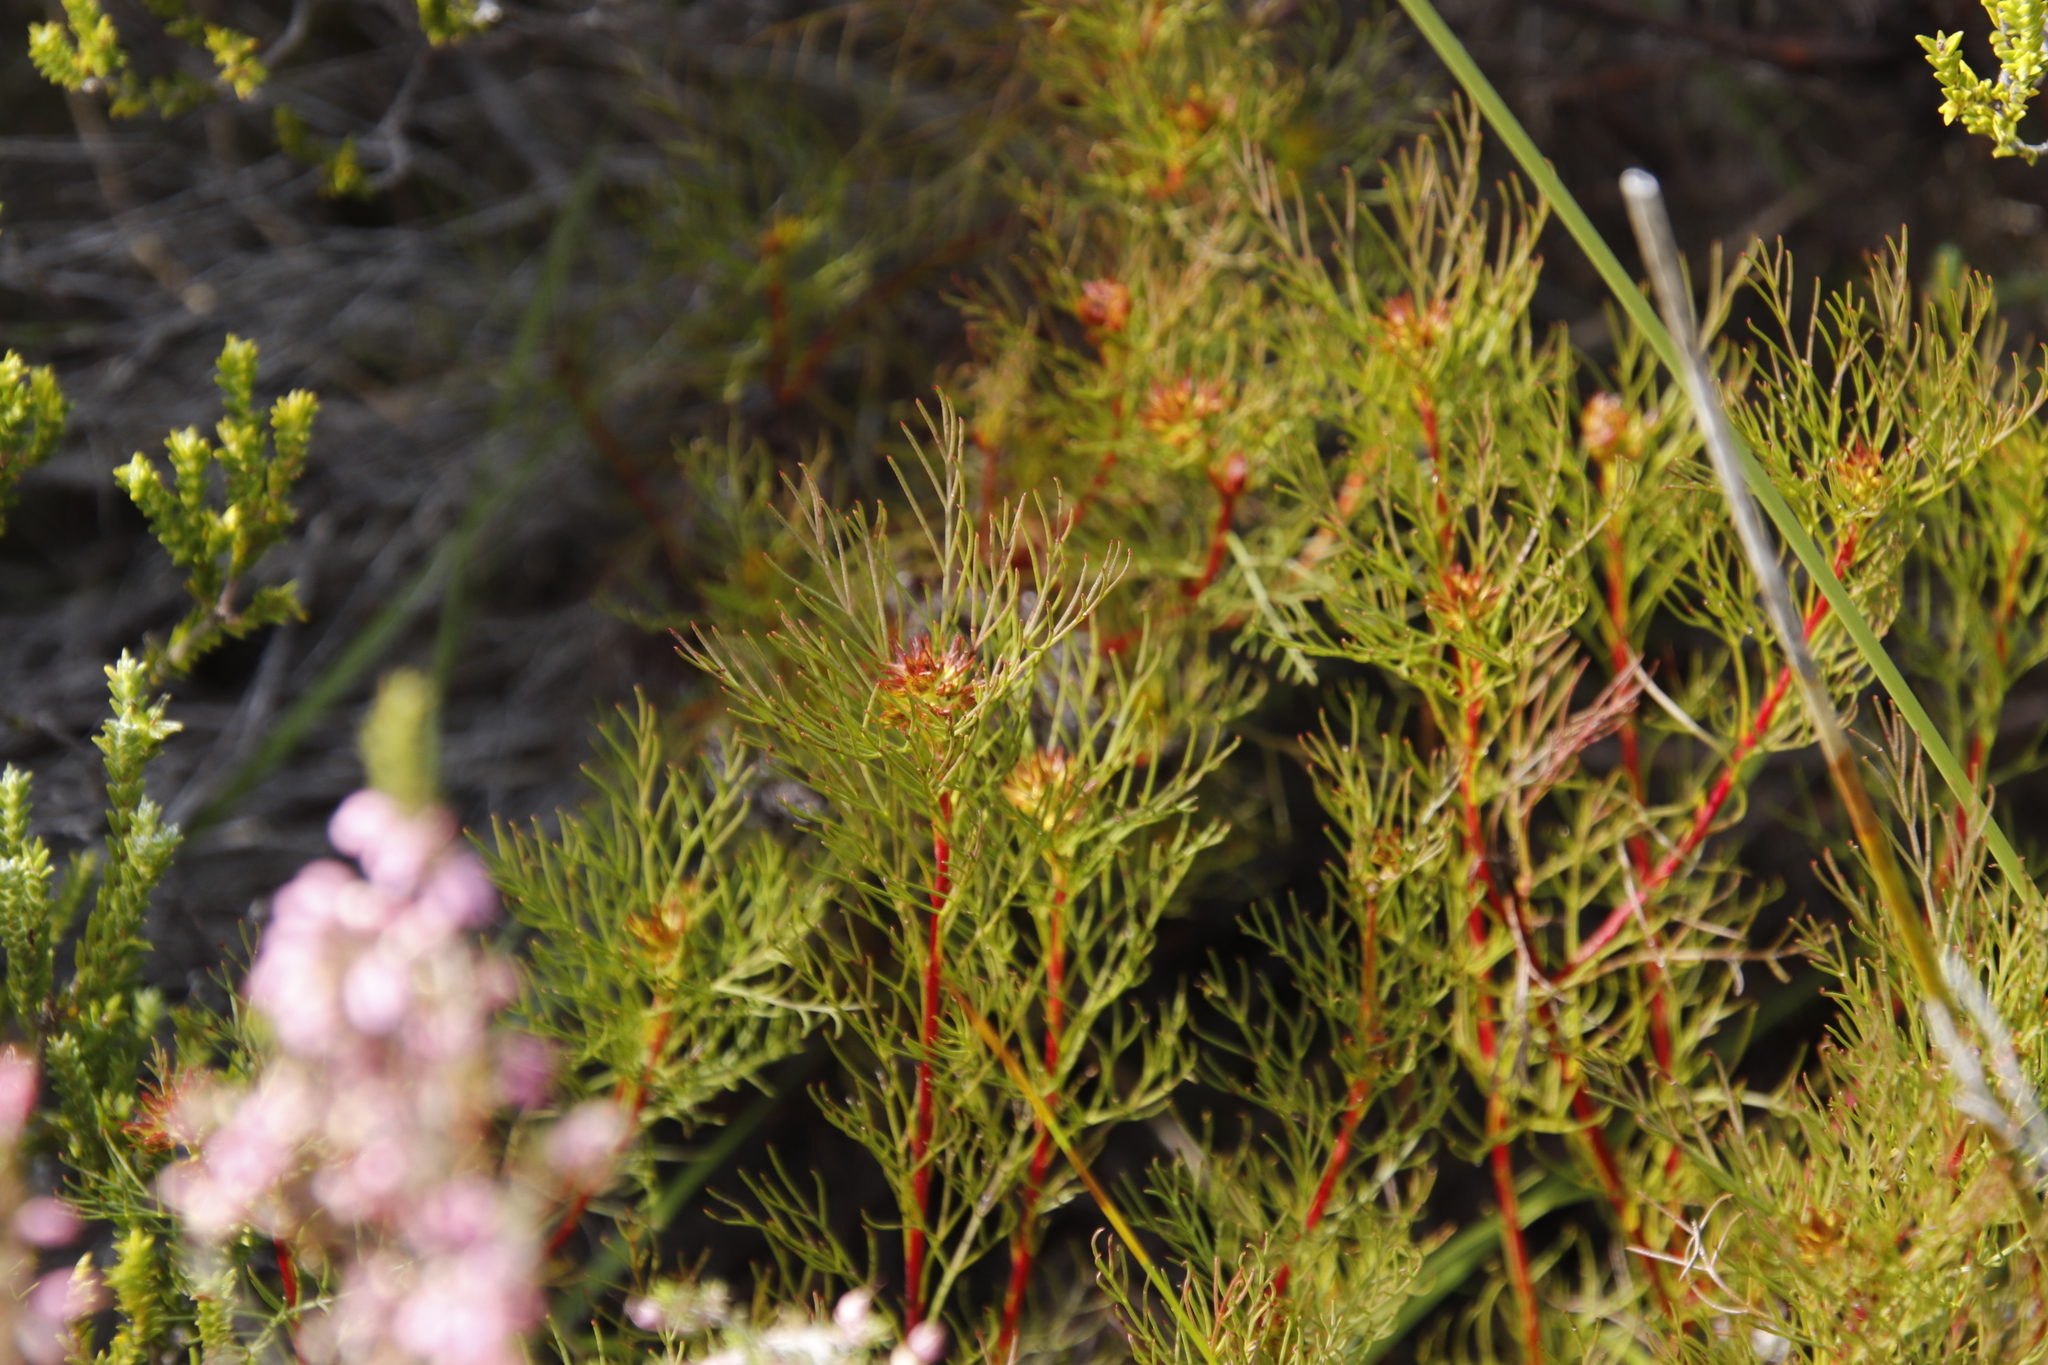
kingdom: Plantae
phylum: Tracheophyta
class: Magnoliopsida
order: Proteales
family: Proteaceae
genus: Serruria
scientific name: Serruria bolusii
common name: Agulhas spiderhead
